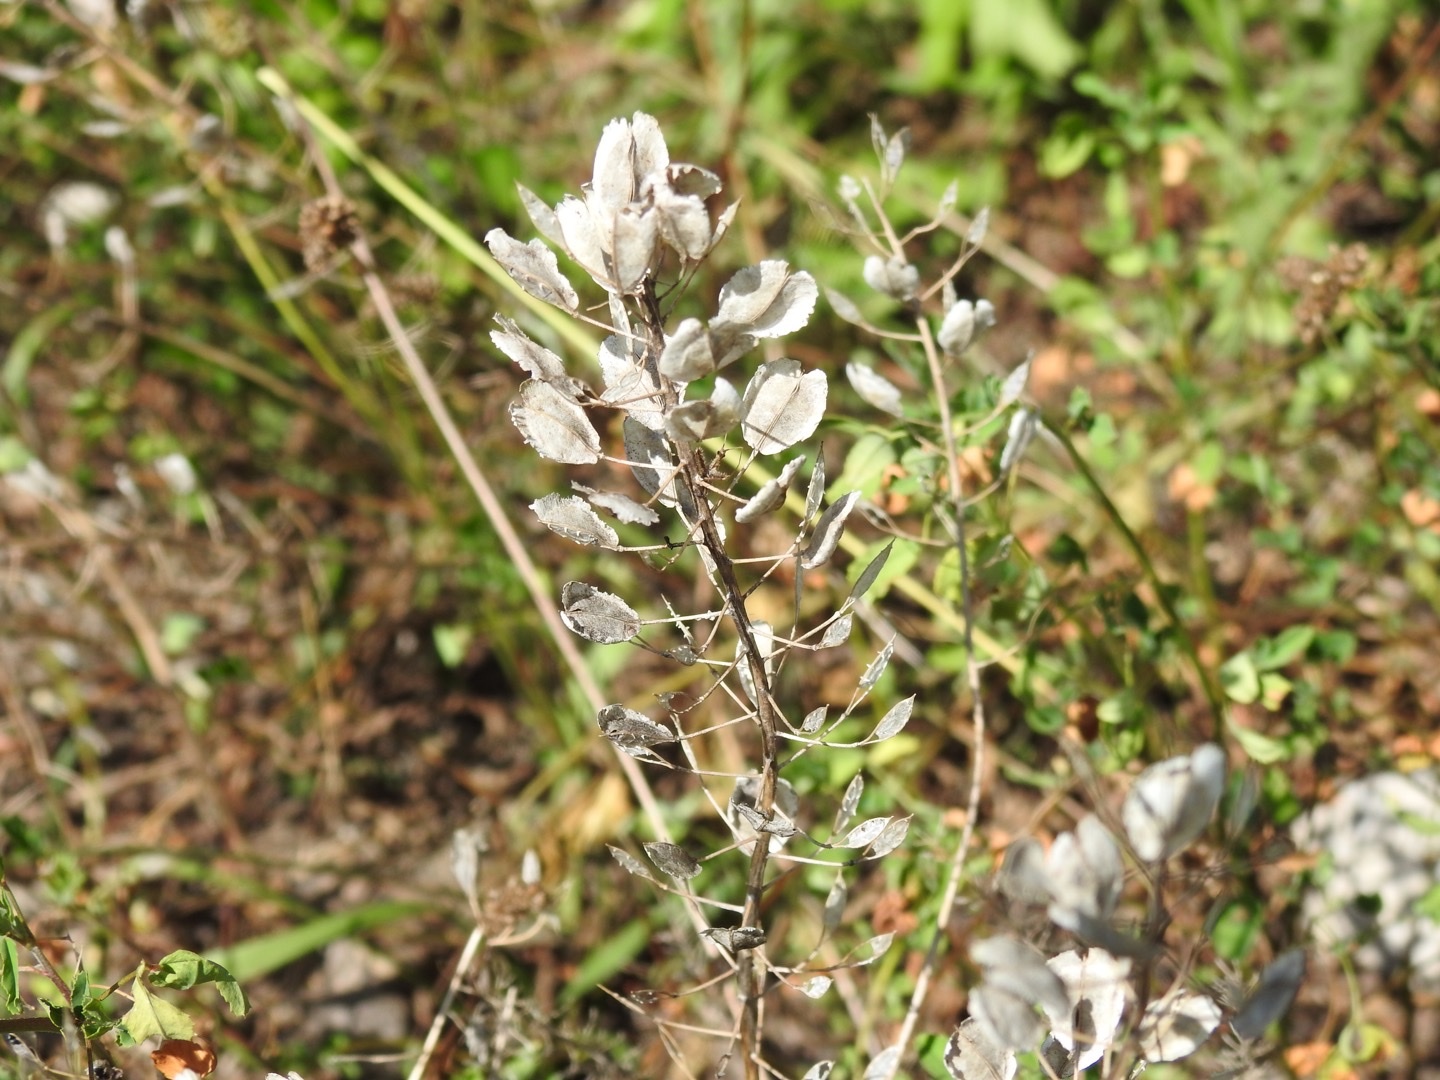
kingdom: Plantae
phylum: Tracheophyta
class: Magnoliopsida
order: Brassicales
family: Brassicaceae
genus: Thlaspi
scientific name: Thlaspi arvense
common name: Field pennycress
